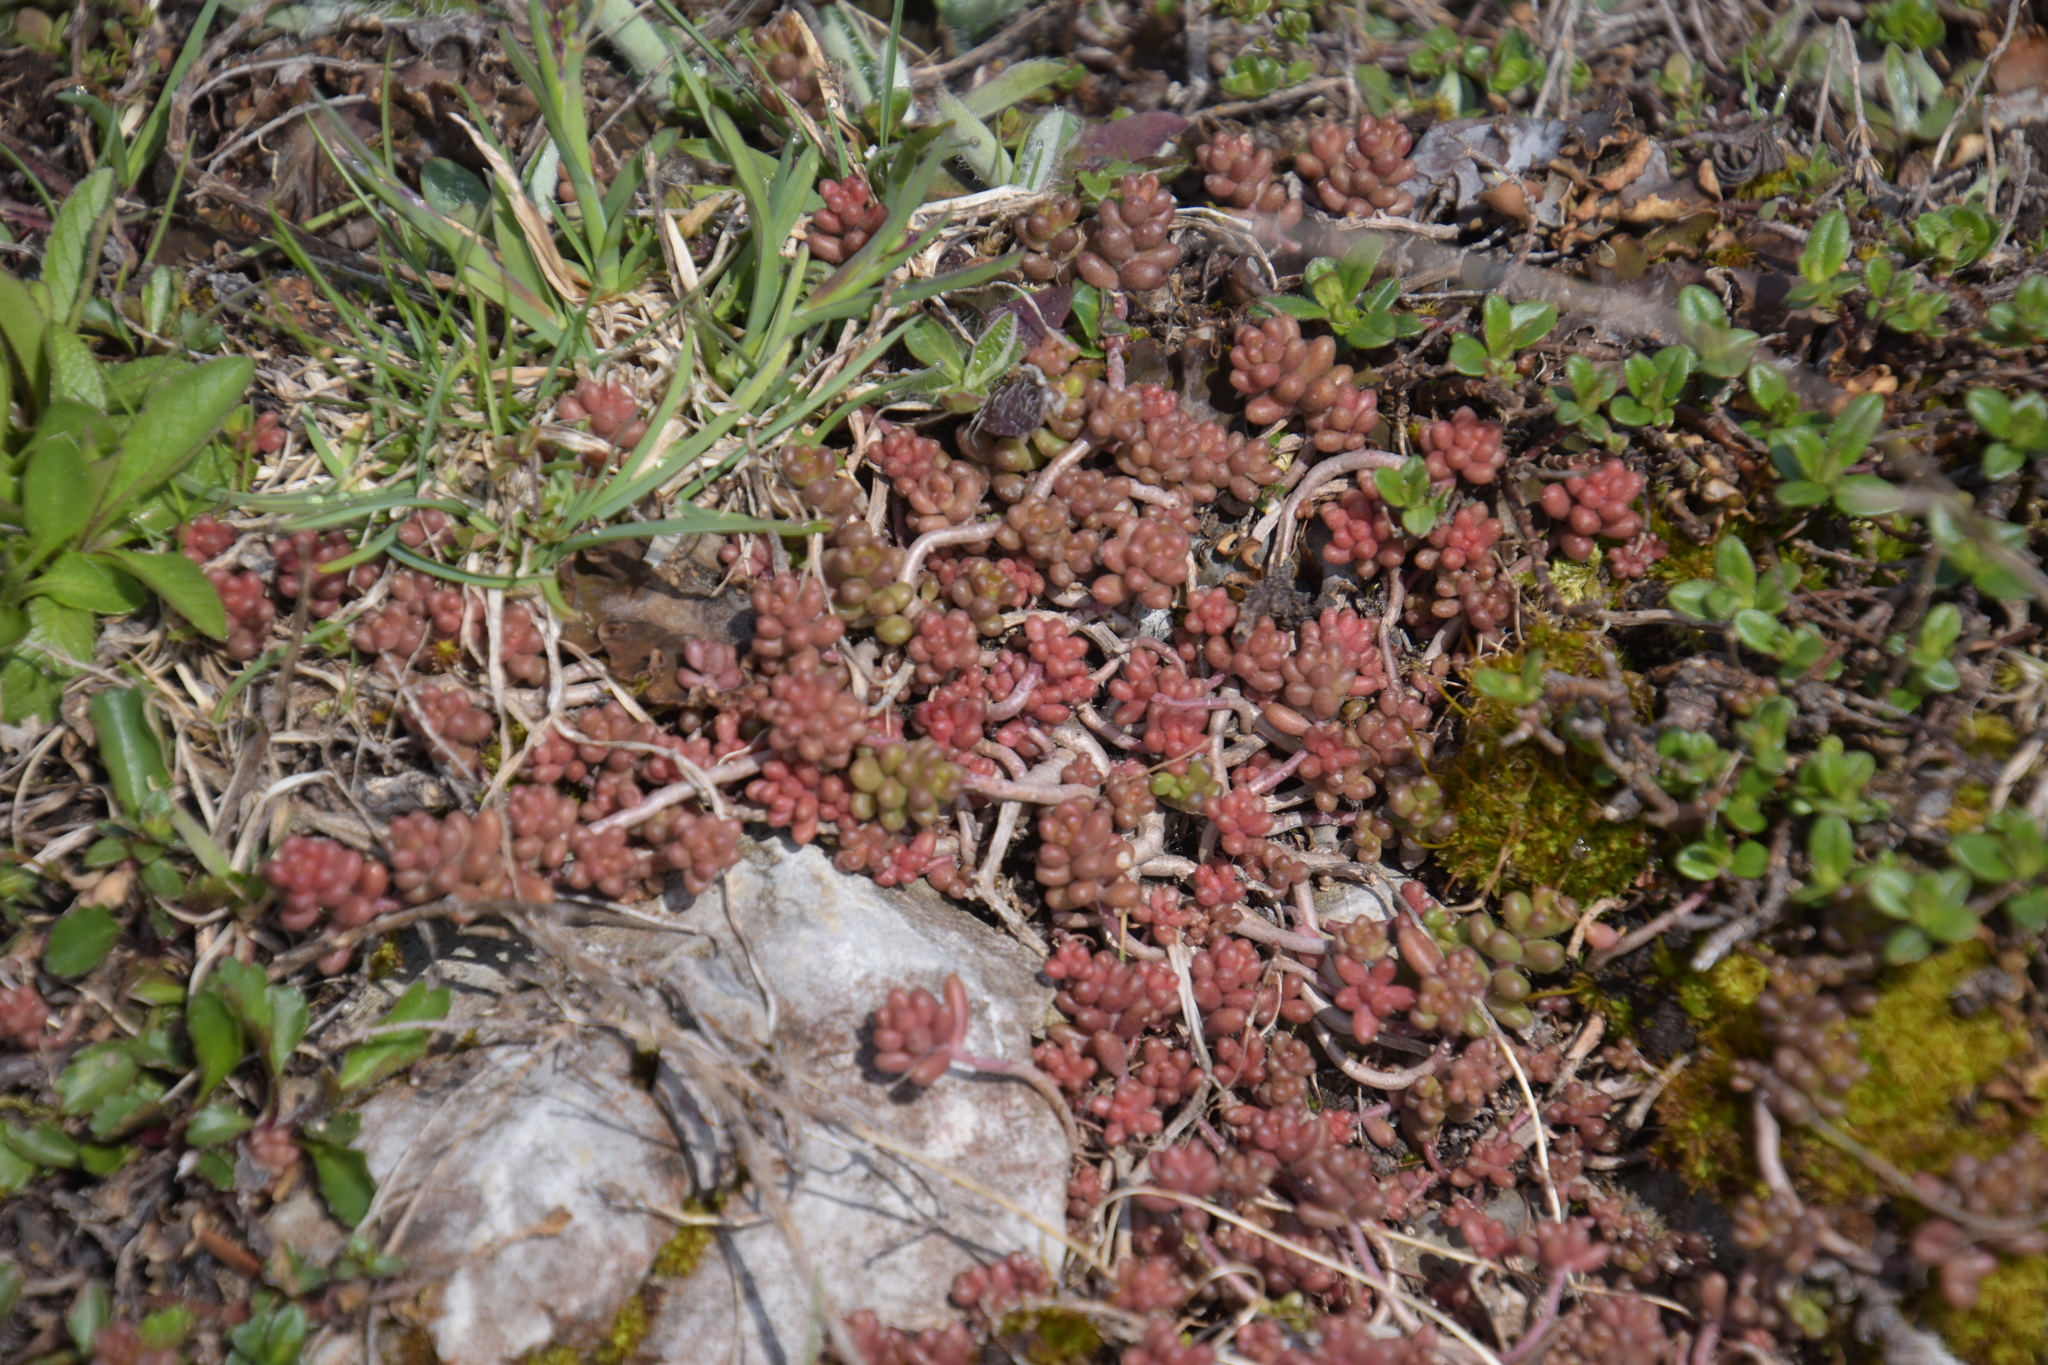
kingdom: Plantae
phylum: Tracheophyta
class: Magnoliopsida
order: Saxifragales
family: Crassulaceae
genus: Sedum
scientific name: Sedum album
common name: White stonecrop
